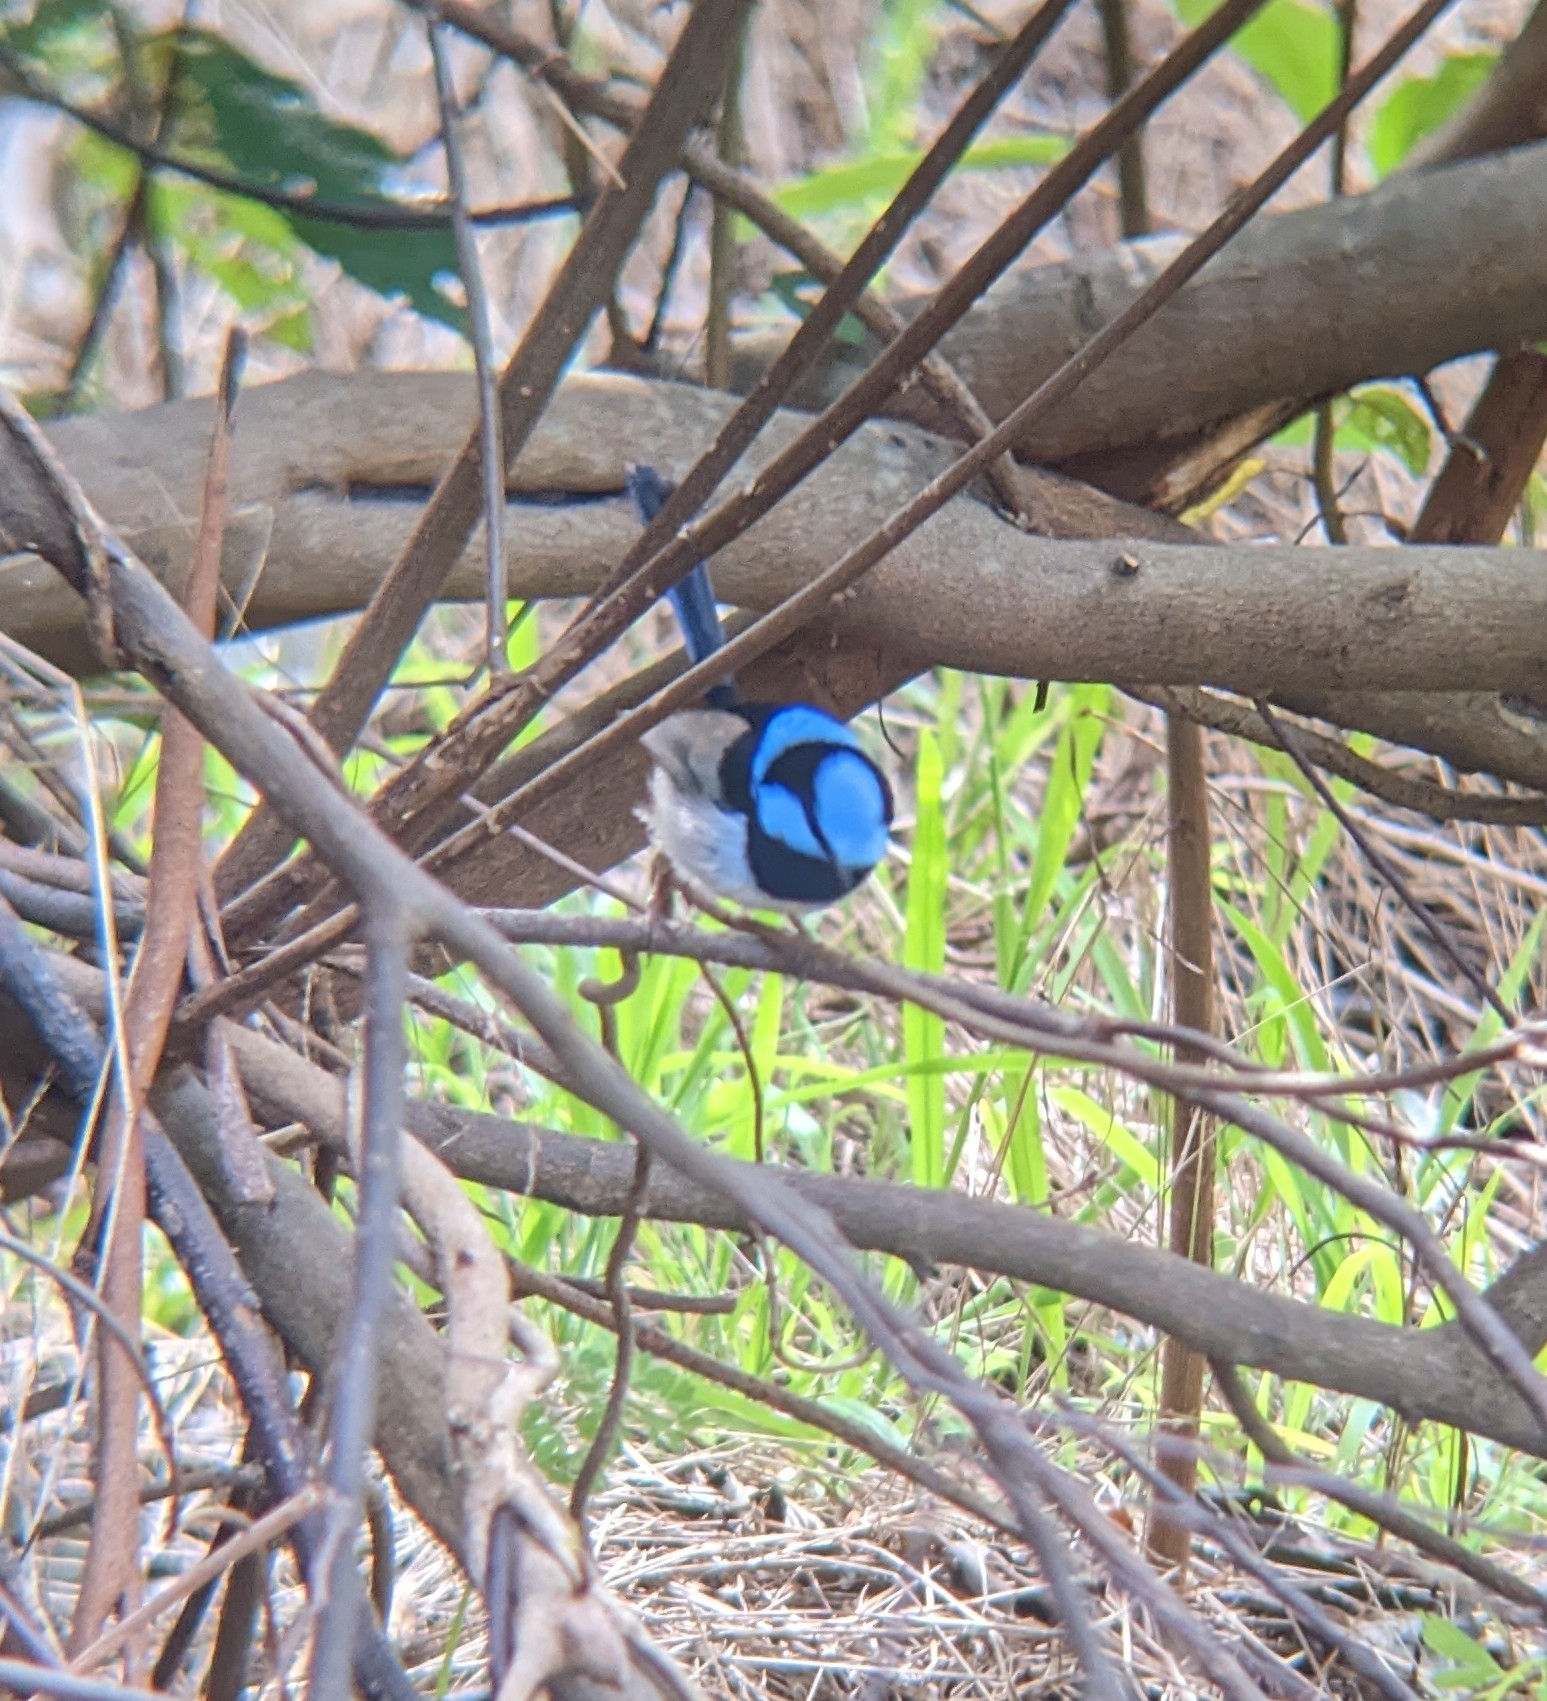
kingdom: Animalia
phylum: Chordata
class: Aves
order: Passeriformes
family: Maluridae
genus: Malurus
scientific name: Malurus cyaneus
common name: Superb fairywren
